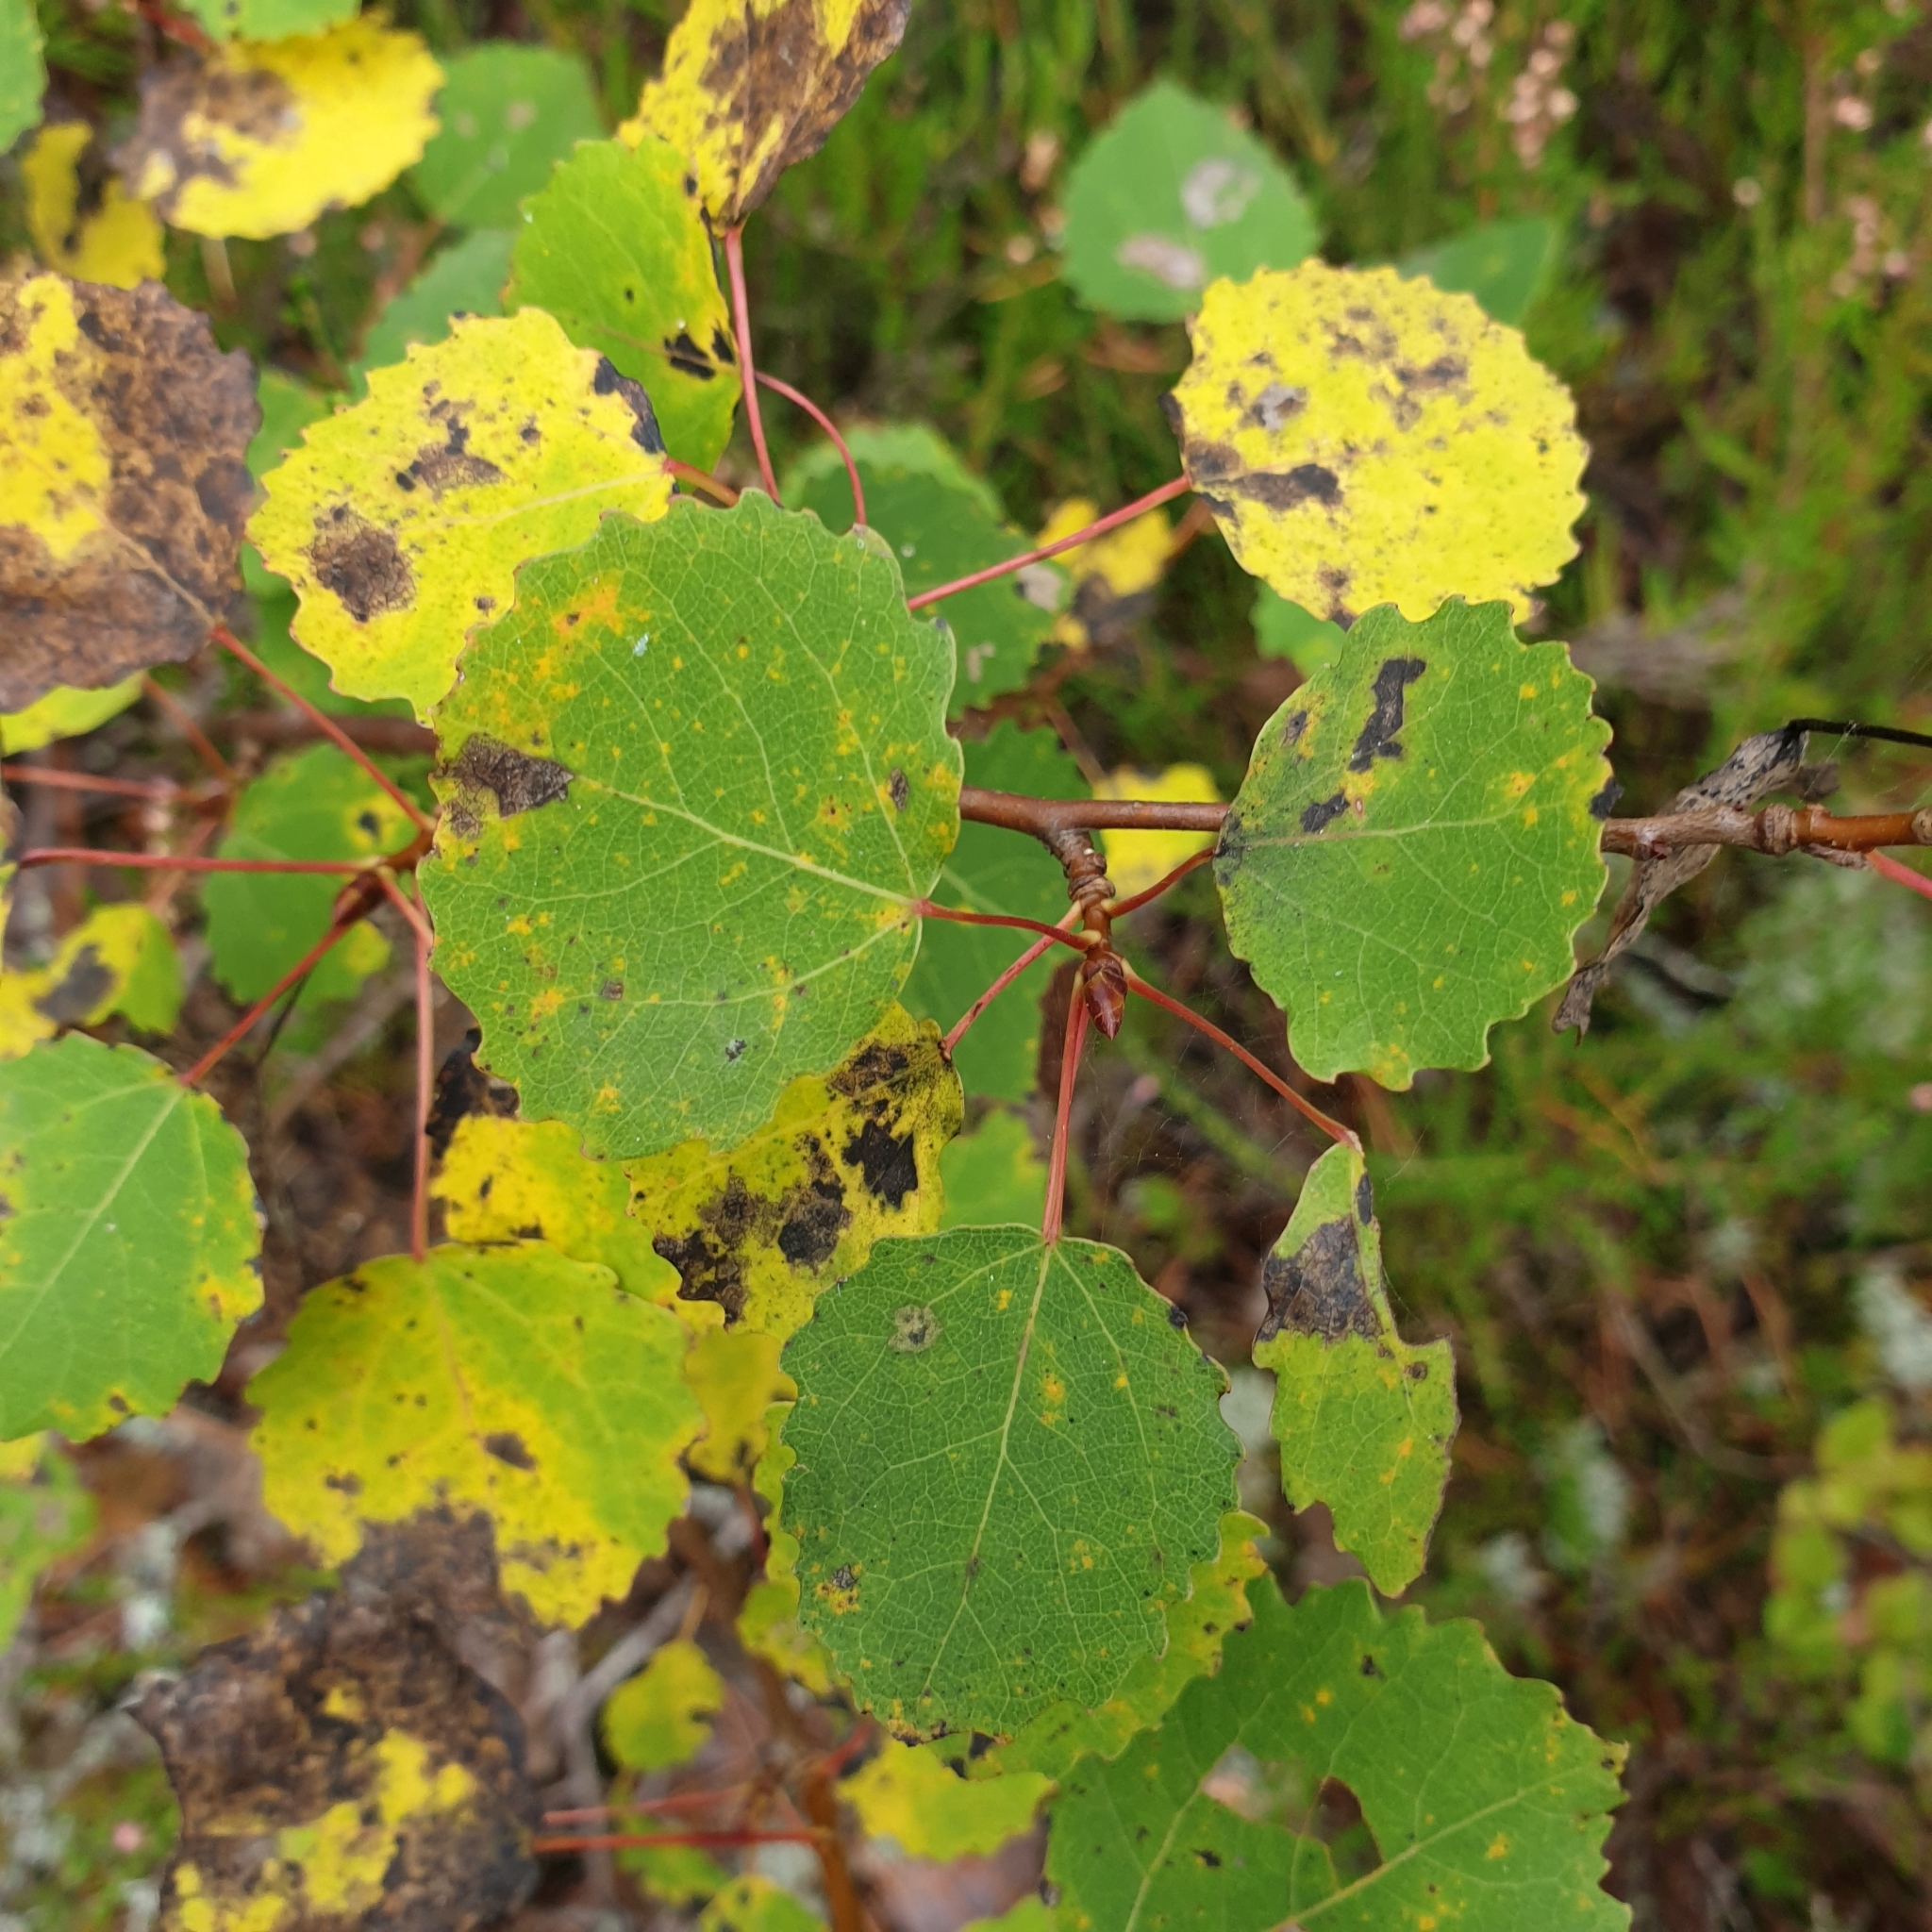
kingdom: Plantae
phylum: Tracheophyta
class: Magnoliopsida
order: Malpighiales
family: Salicaceae
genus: Populus
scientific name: Populus tremula
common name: European aspen
